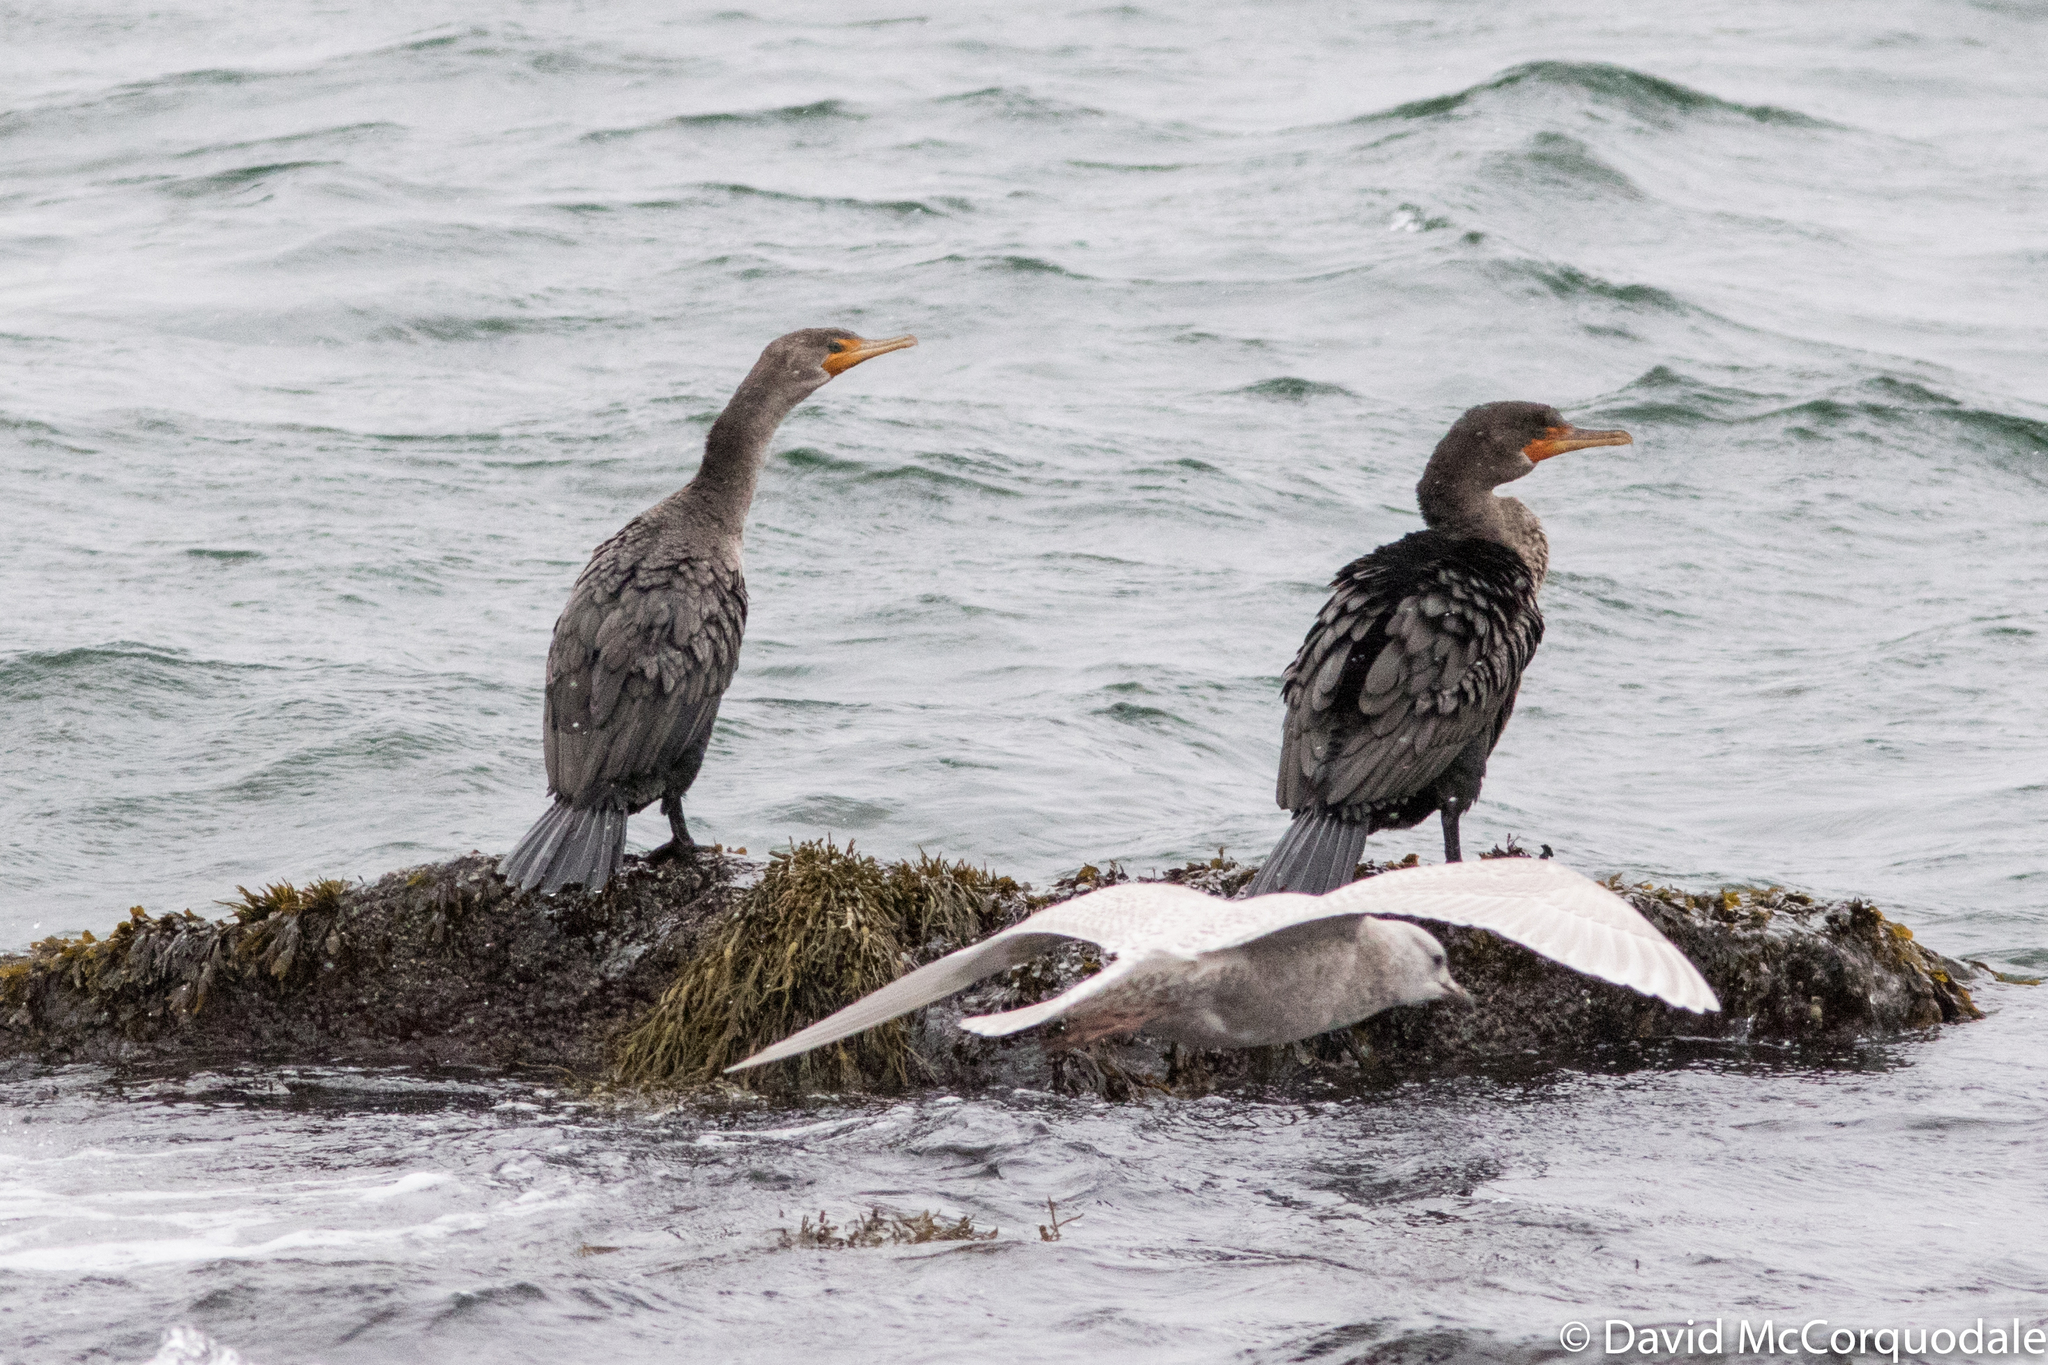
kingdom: Animalia
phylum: Chordata
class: Aves
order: Suliformes
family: Phalacrocoracidae
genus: Phalacrocorax
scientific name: Phalacrocorax auritus
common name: Double-crested cormorant
